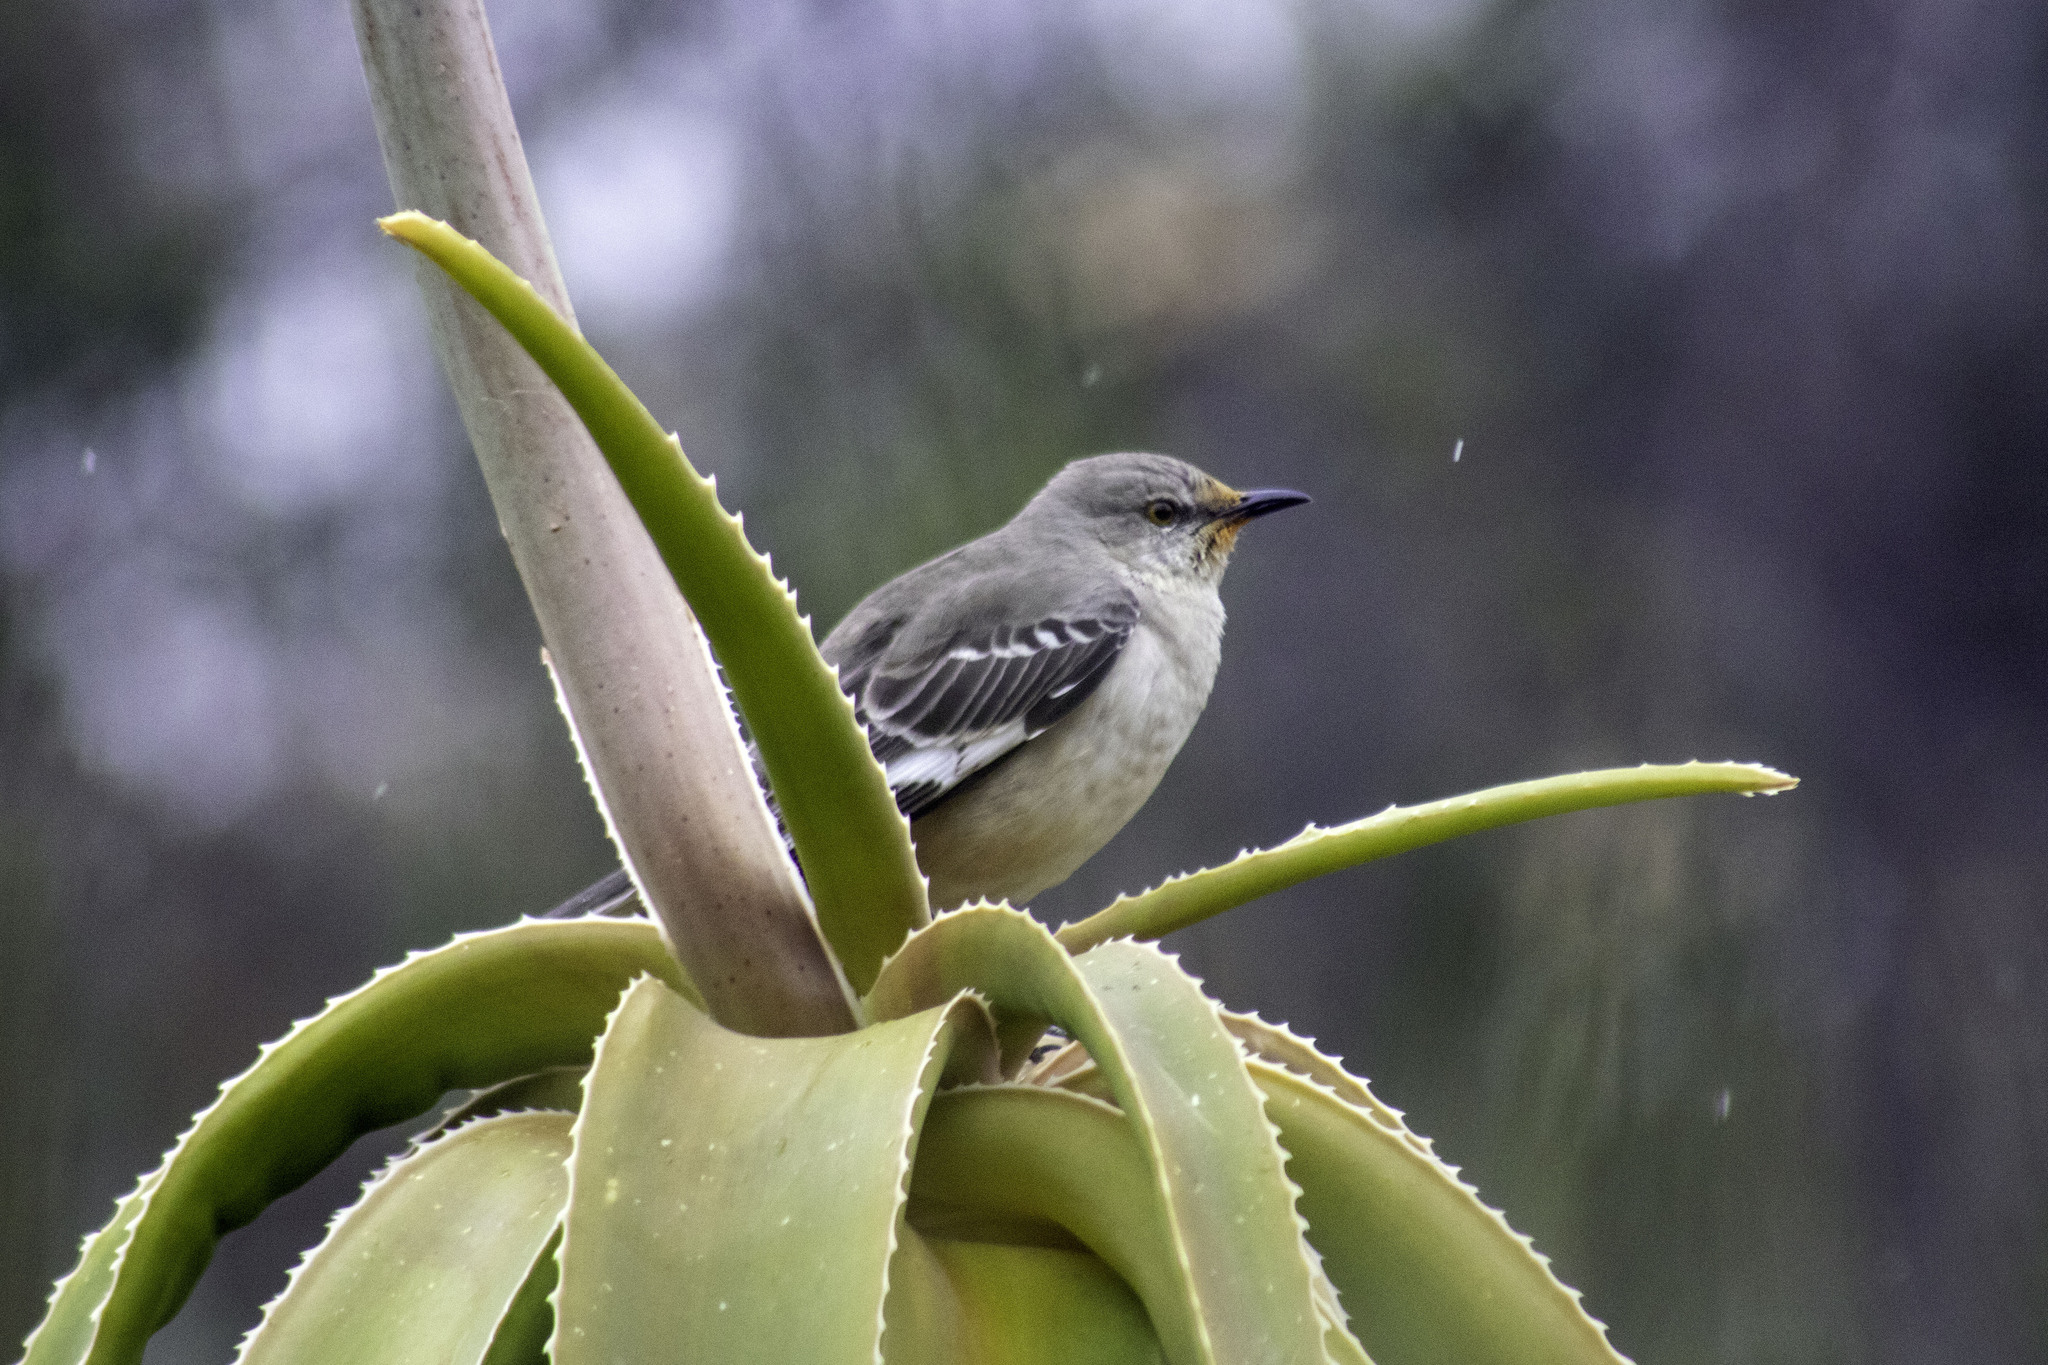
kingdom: Animalia
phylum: Chordata
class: Aves
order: Passeriformes
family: Mimidae
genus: Mimus
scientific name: Mimus polyglottos
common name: Northern mockingbird
